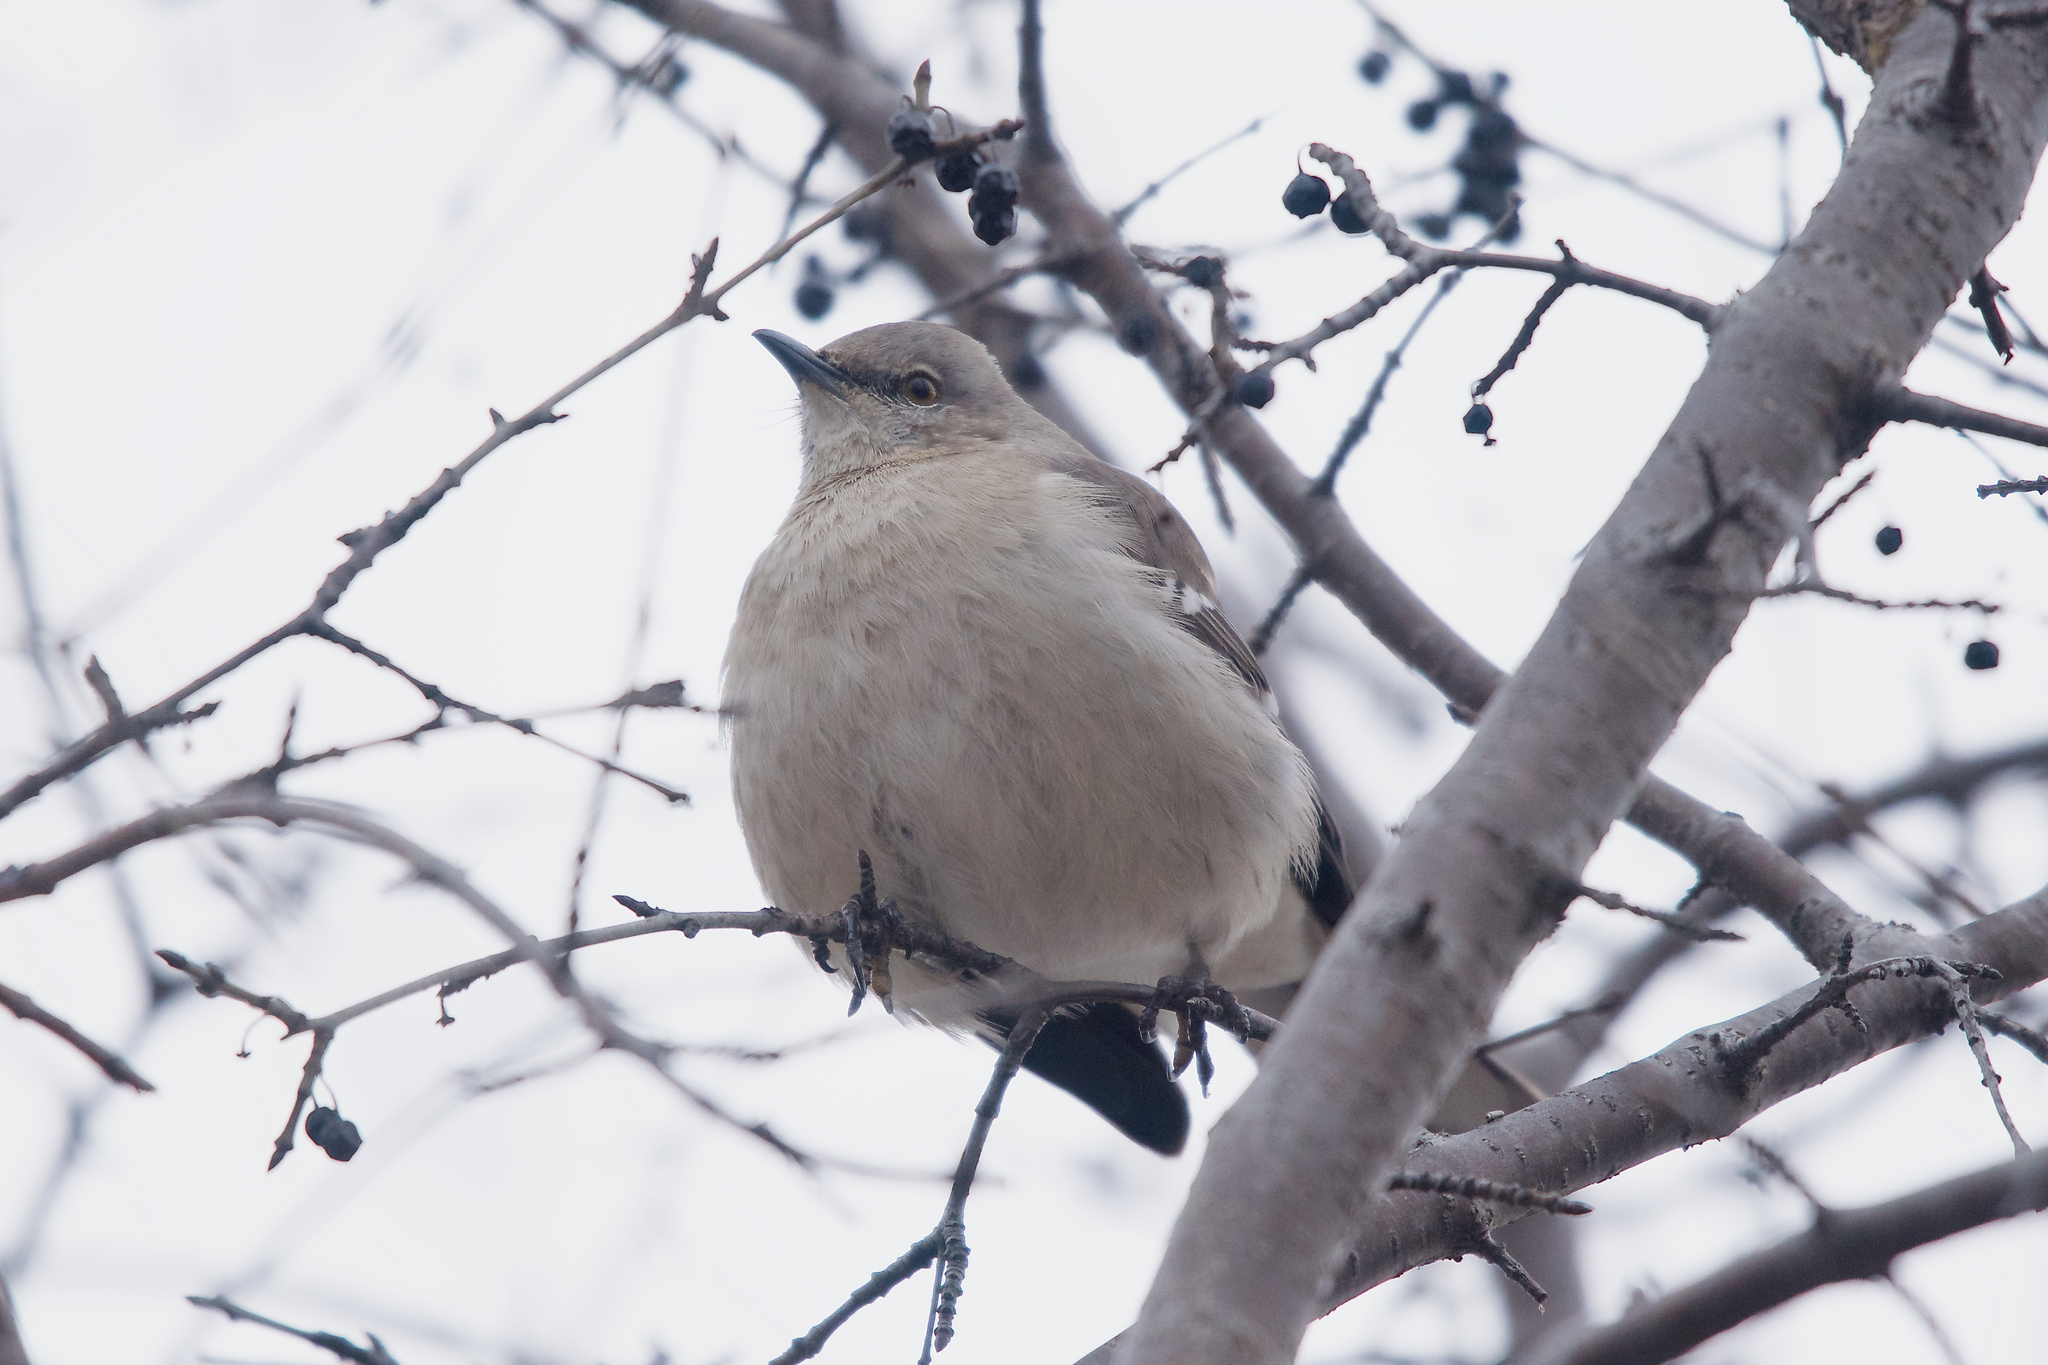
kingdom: Animalia
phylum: Chordata
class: Aves
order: Passeriformes
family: Mimidae
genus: Mimus
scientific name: Mimus polyglottos
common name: Northern mockingbird
